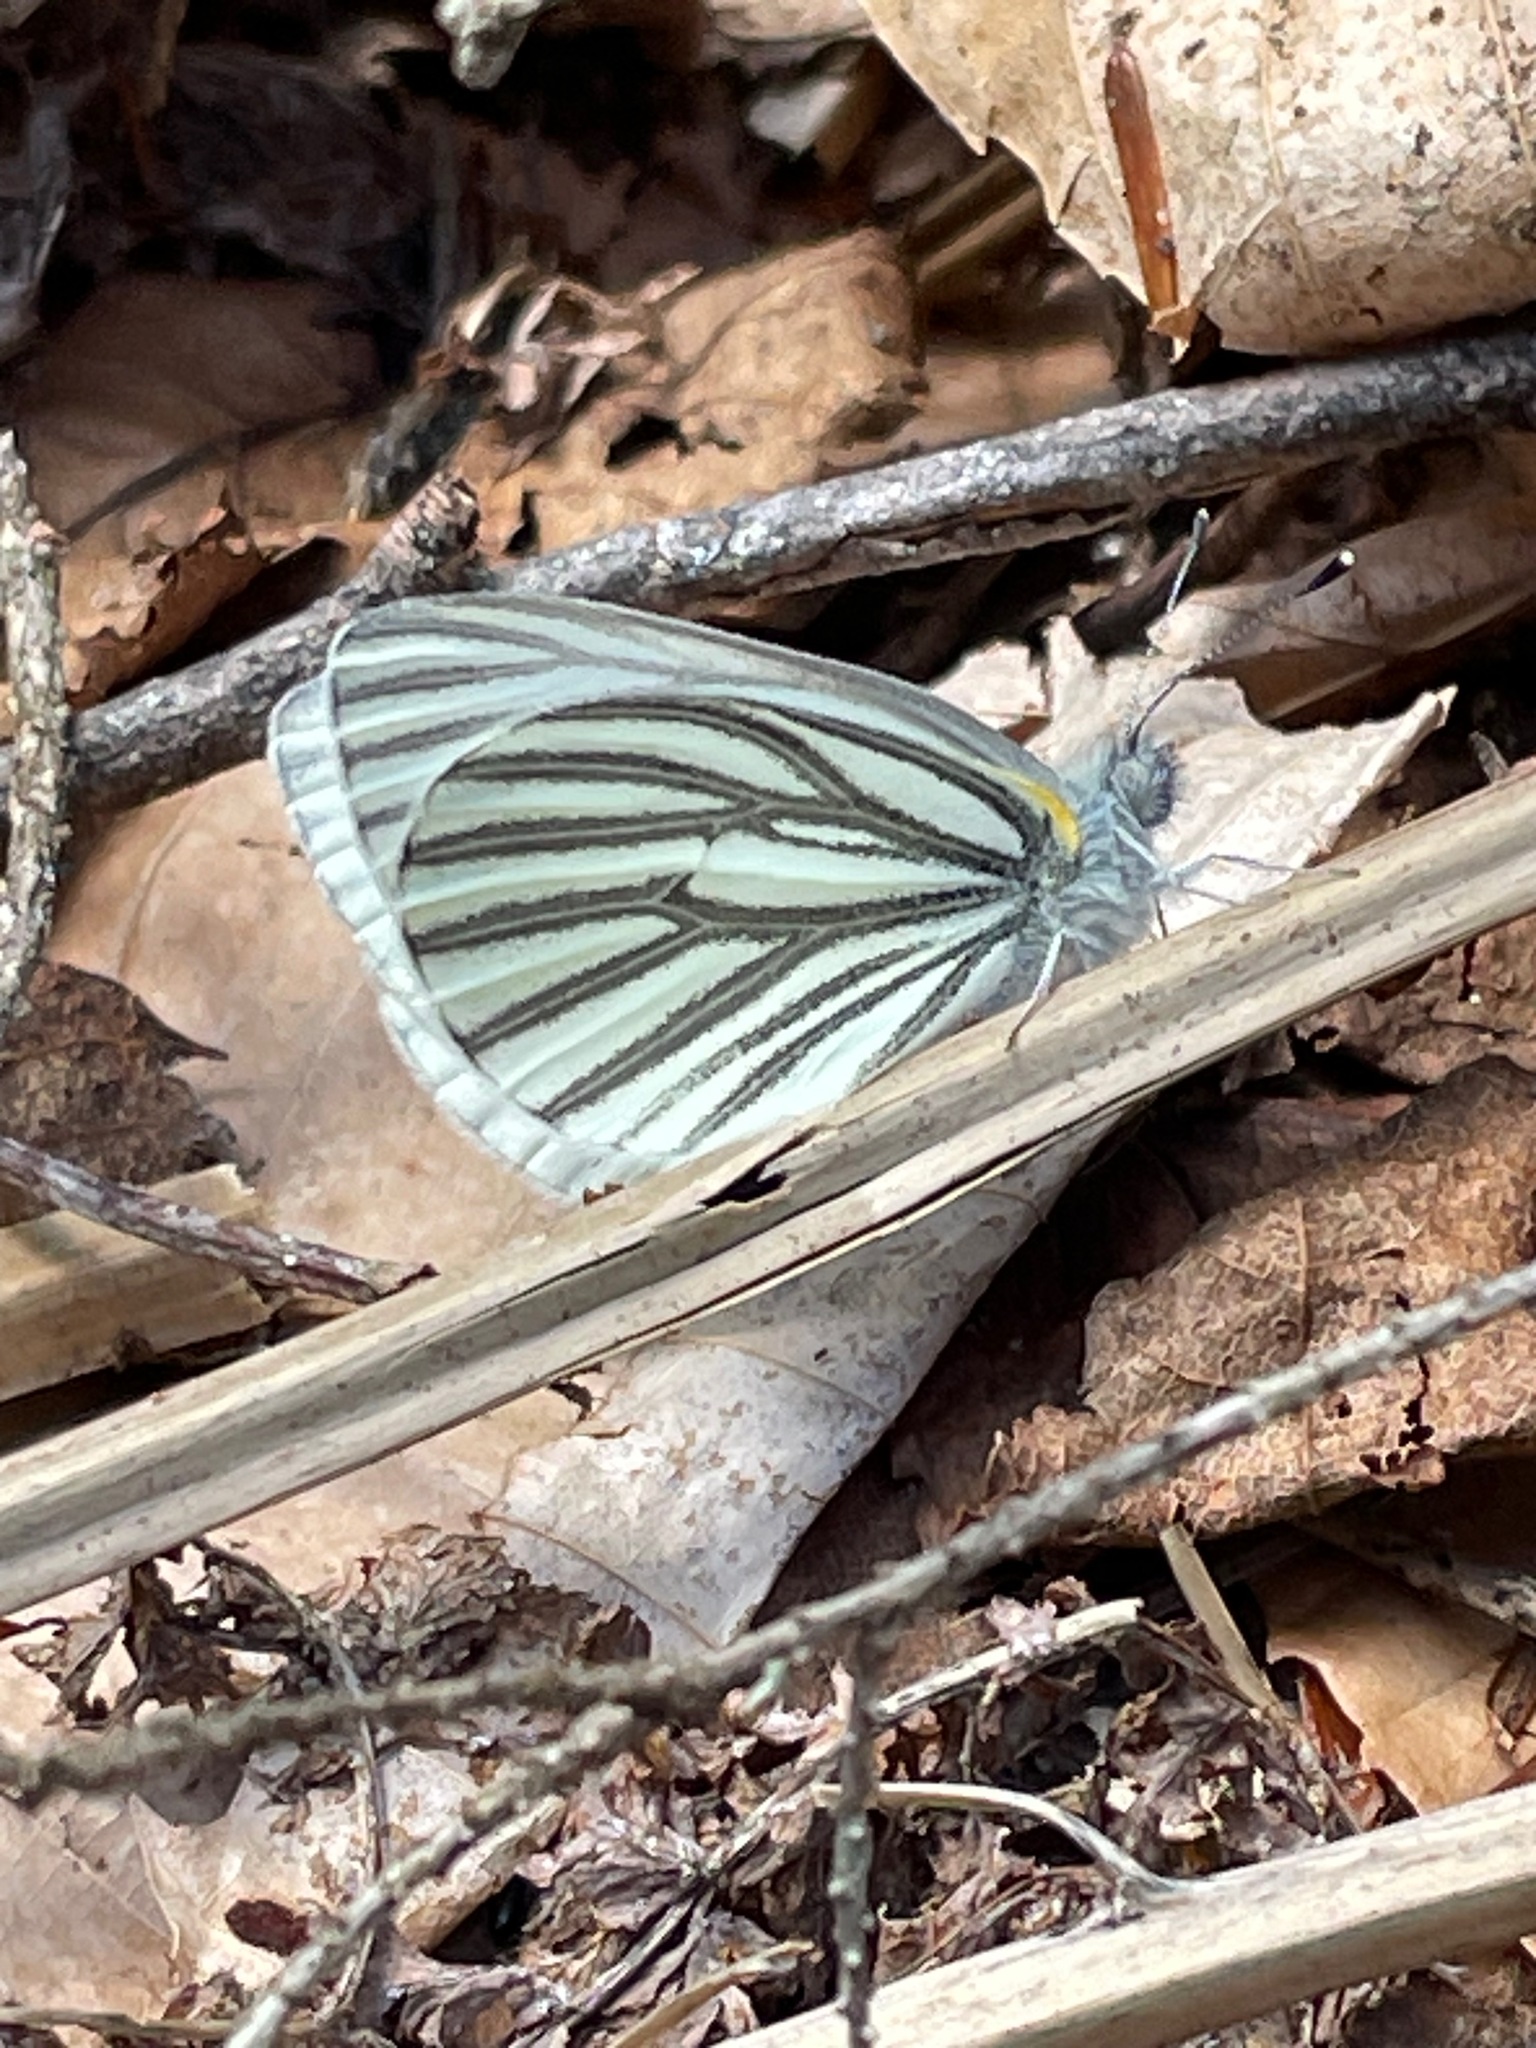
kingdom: Animalia
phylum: Arthropoda
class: Insecta
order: Lepidoptera
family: Pieridae
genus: Pieris
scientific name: Pieris oleracea
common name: Mustard white
